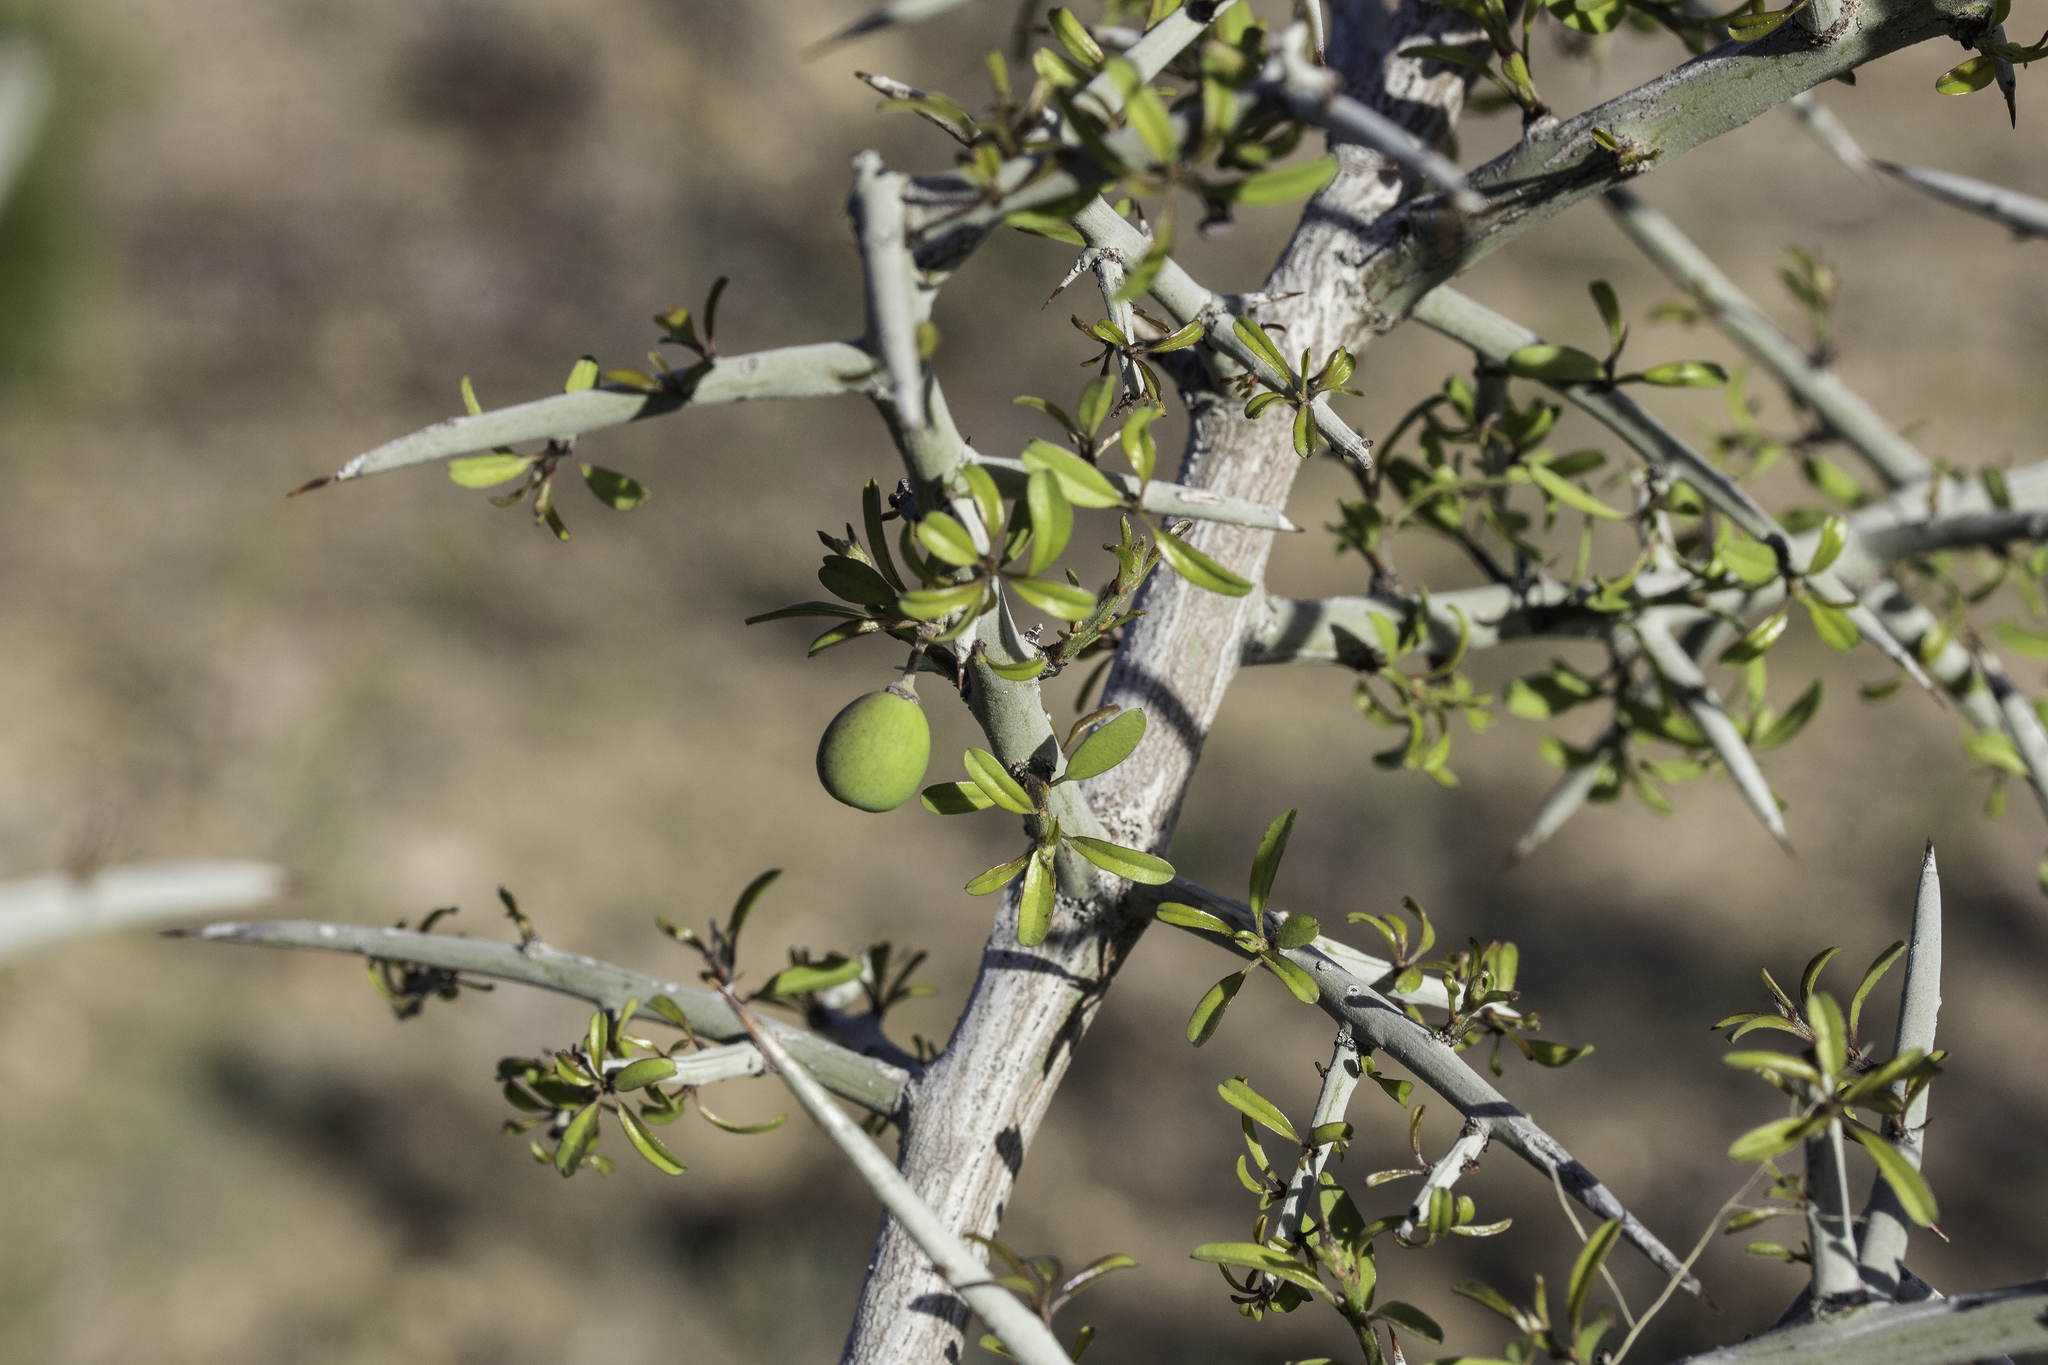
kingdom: Plantae
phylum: Tracheophyta
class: Magnoliopsida
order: Rosales
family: Rhamnaceae
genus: Sarcomphalus
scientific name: Sarcomphalus obtusifolius
